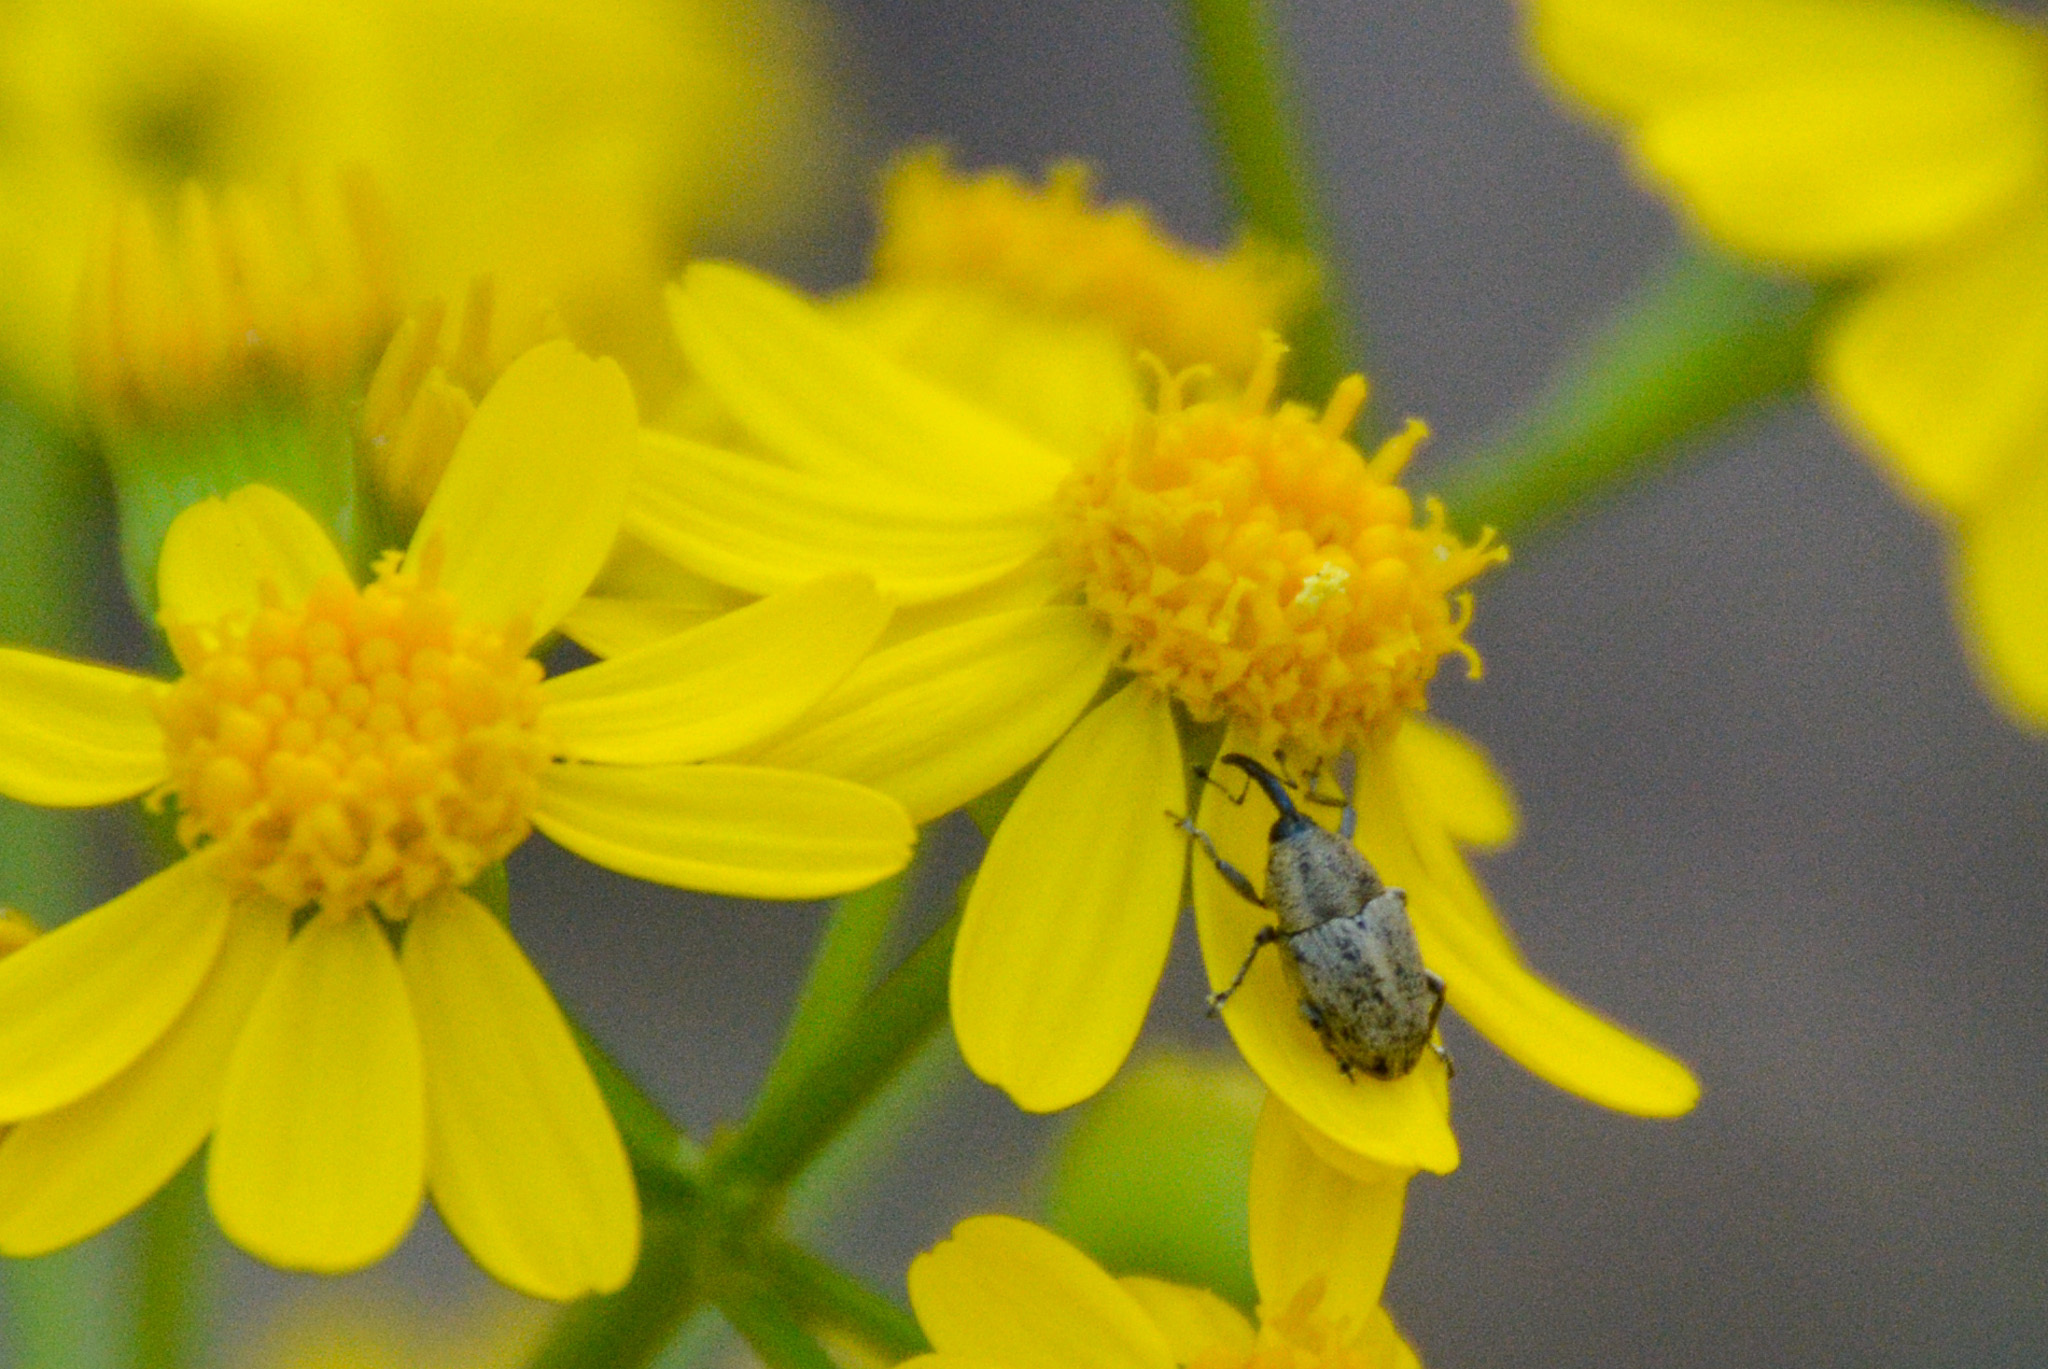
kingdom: Plantae
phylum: Tracheophyta
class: Magnoliopsida
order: Asterales
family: Asteraceae
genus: Packera
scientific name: Packera glabella
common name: Butterweed
